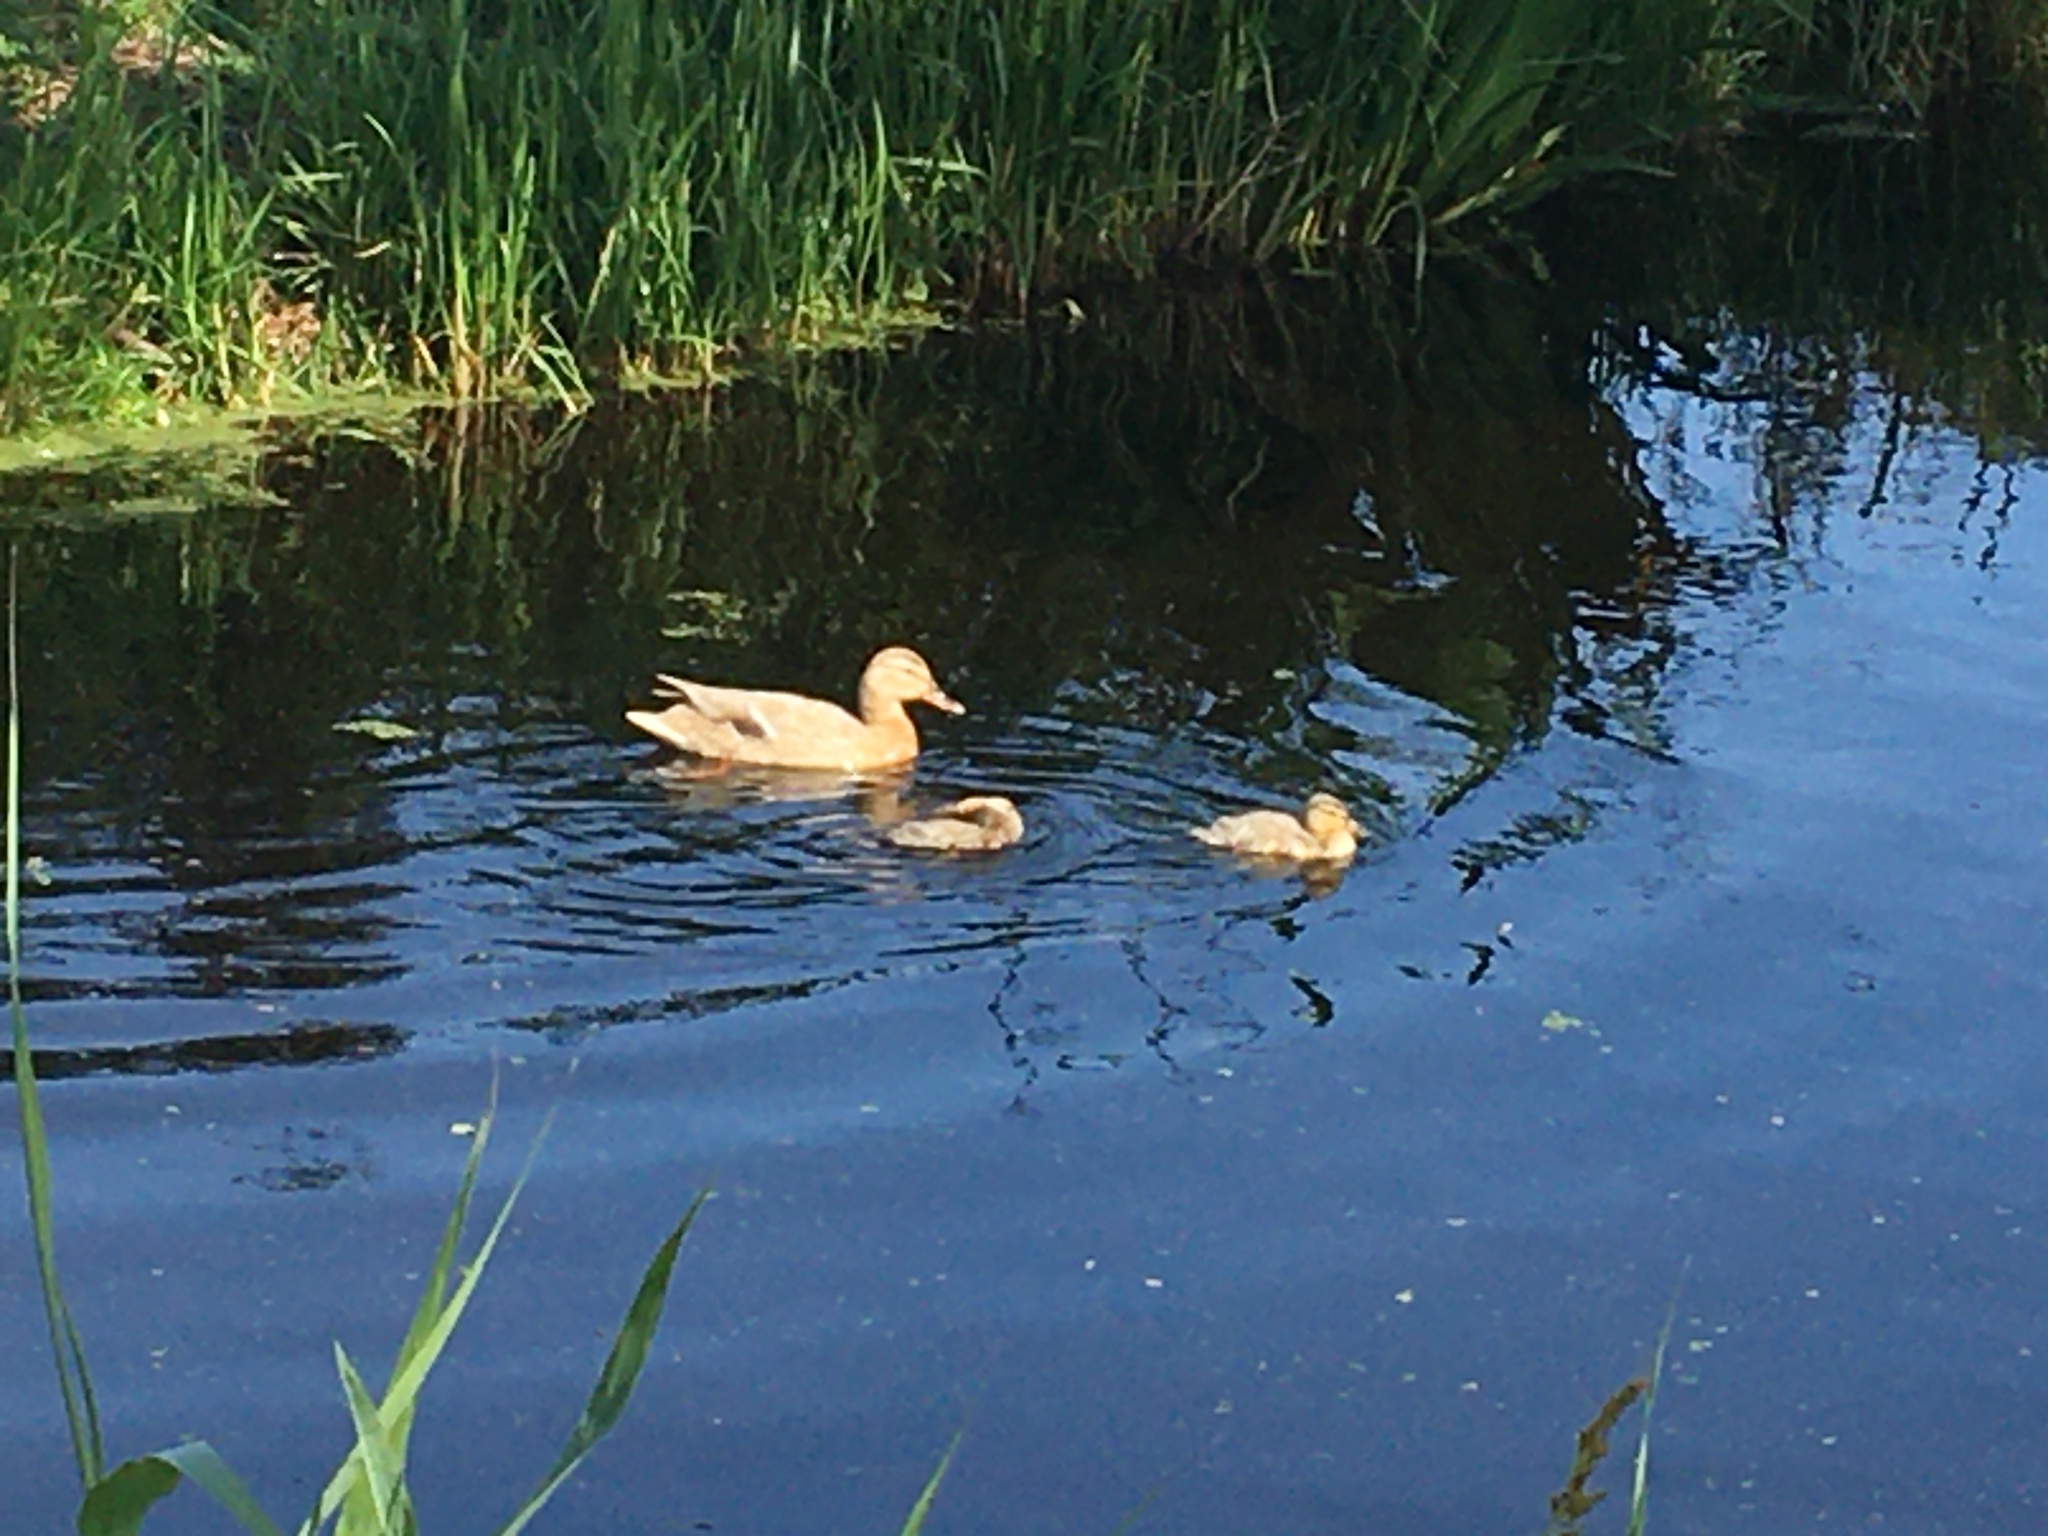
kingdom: Animalia
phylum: Chordata
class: Aves
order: Anseriformes
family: Anatidae
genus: Mareca
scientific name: Mareca strepera
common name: Gadwall
